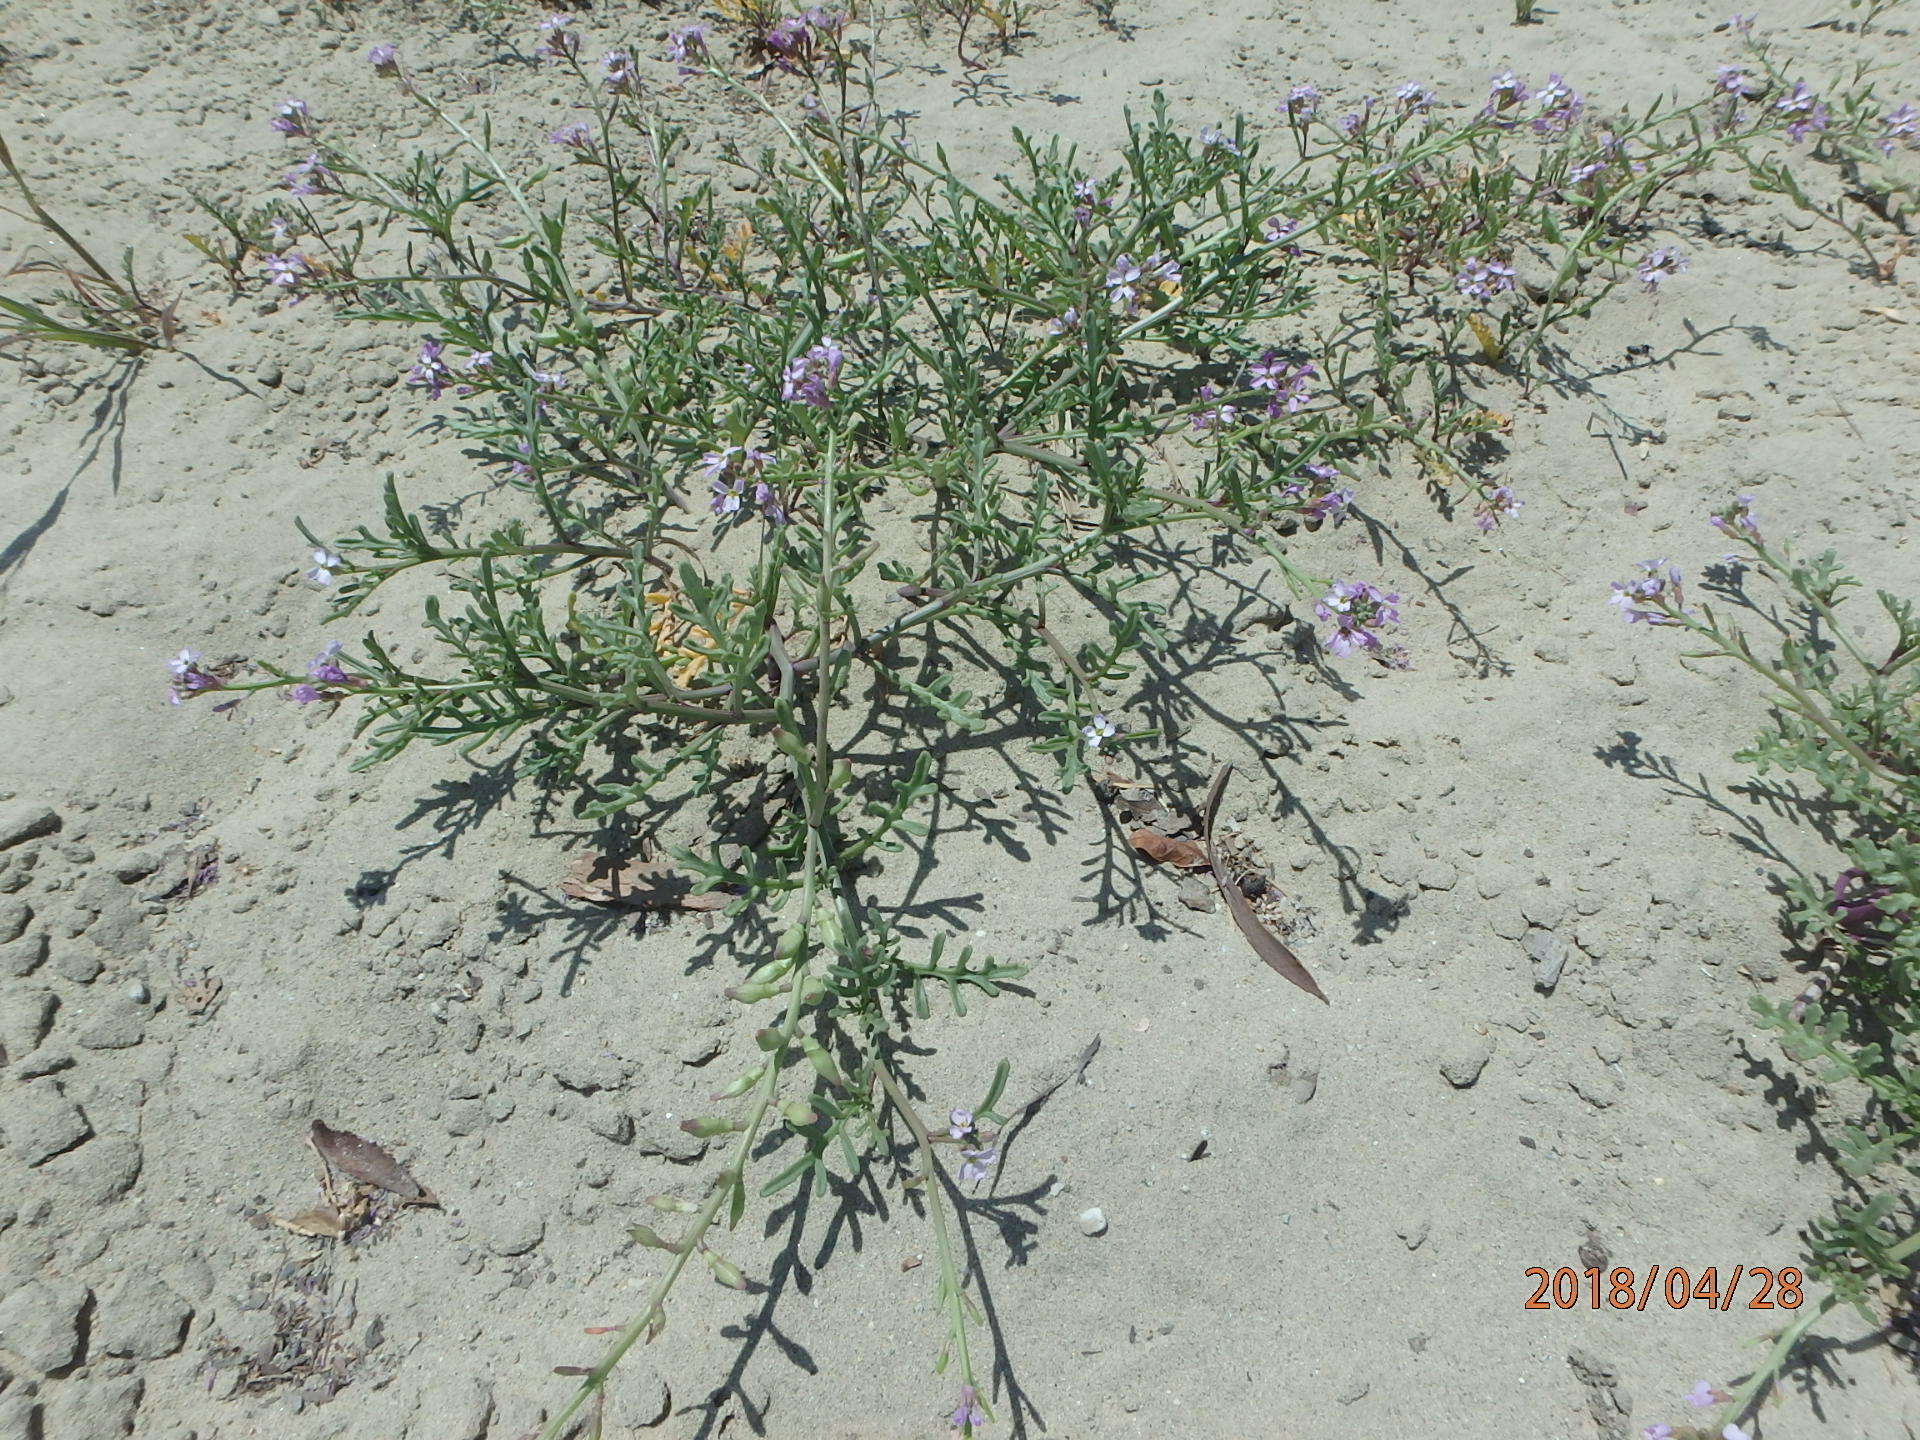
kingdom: Plantae
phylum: Tracheophyta
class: Magnoliopsida
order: Brassicales
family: Brassicaceae
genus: Cakile
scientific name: Cakile maritima
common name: Sea rocket
